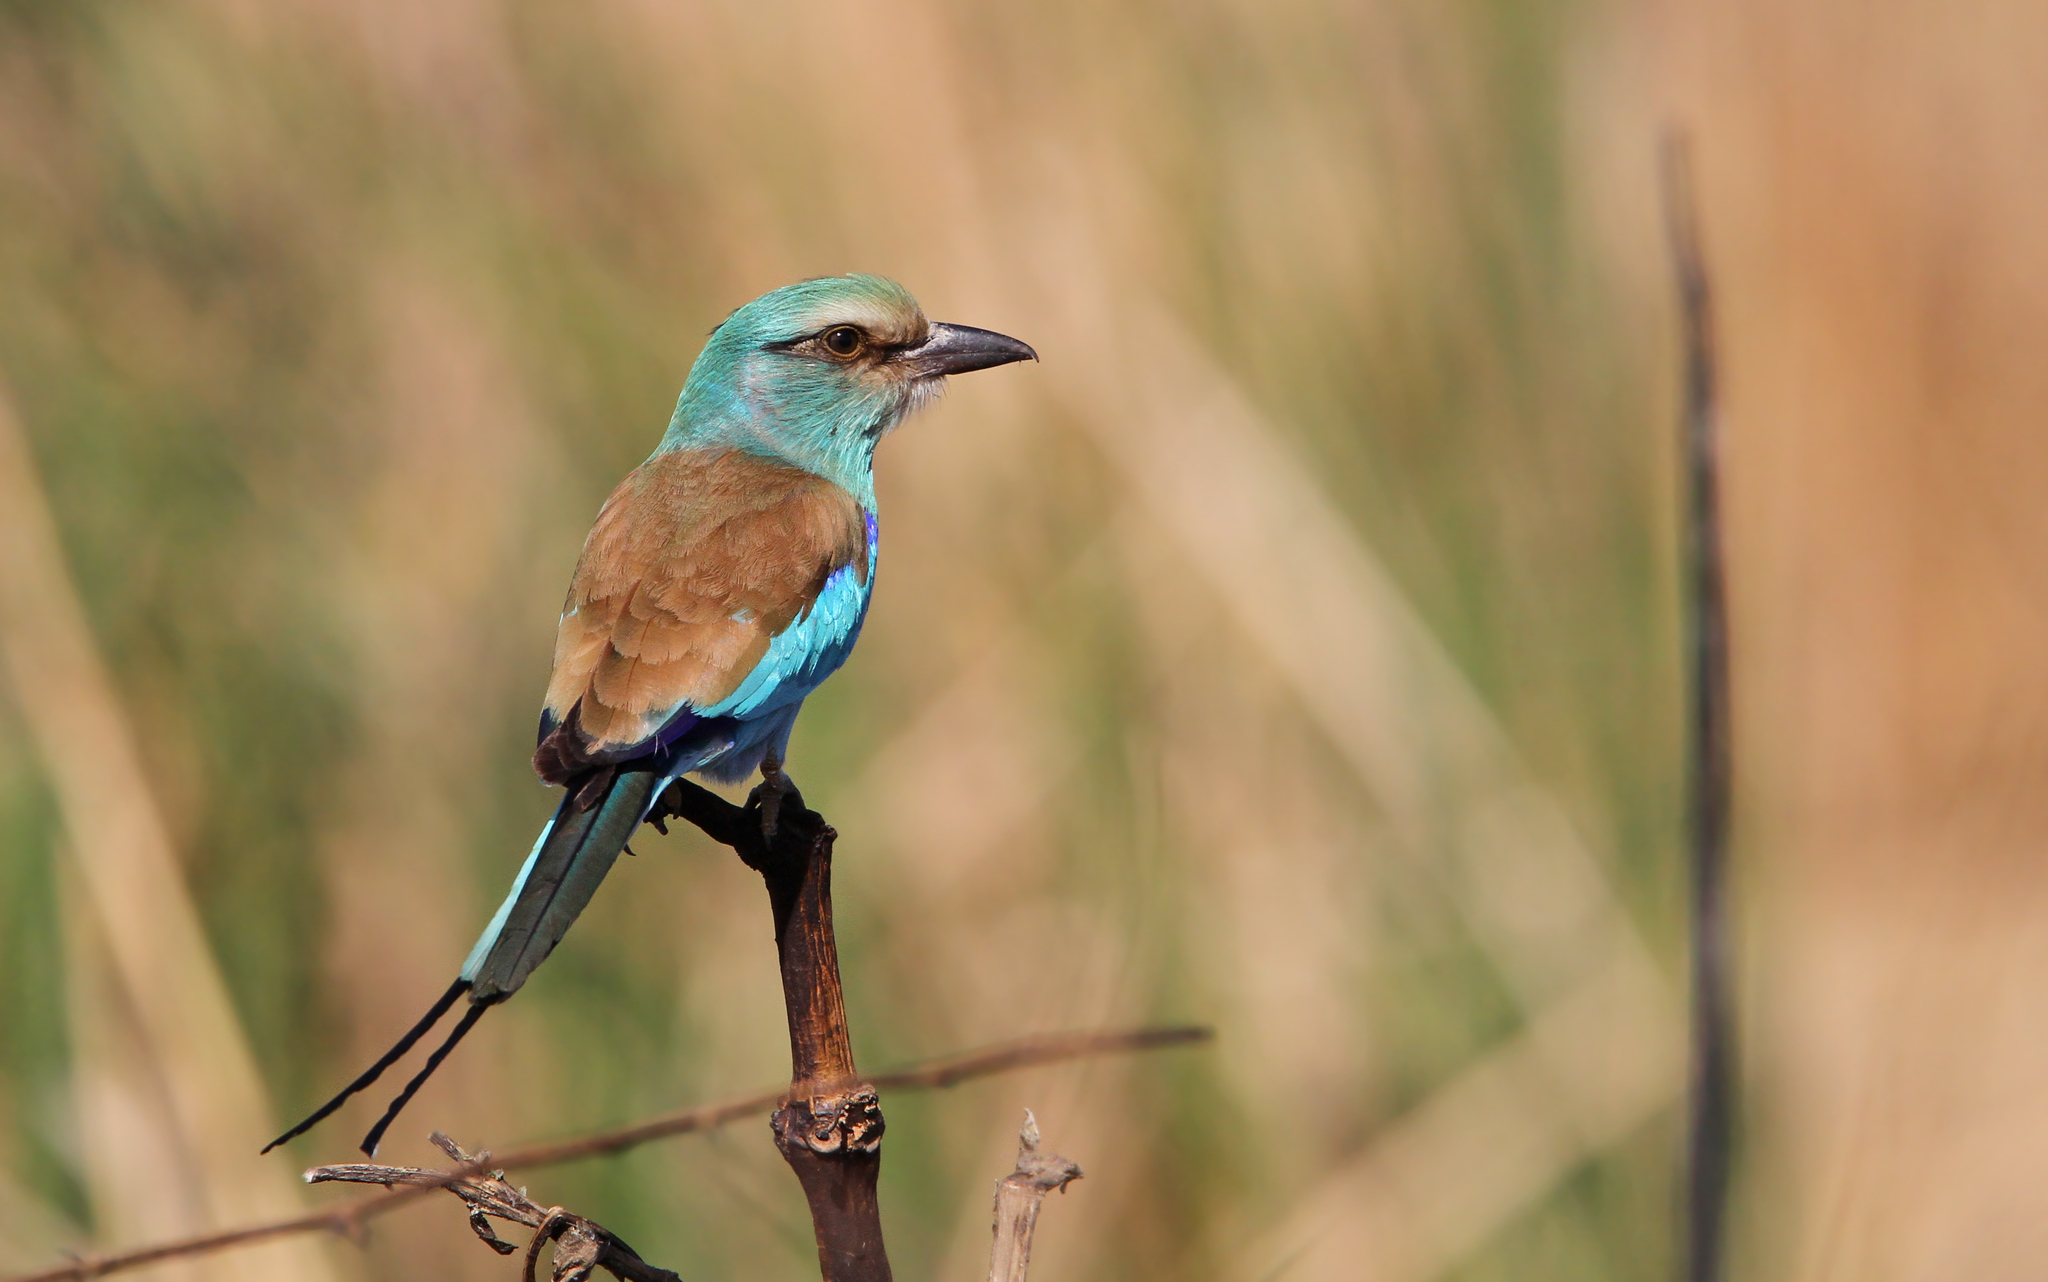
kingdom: Animalia
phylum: Chordata
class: Aves
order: Coraciiformes
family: Coraciidae
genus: Coracias
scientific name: Coracias abyssinicus
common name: Abyssinian roller
